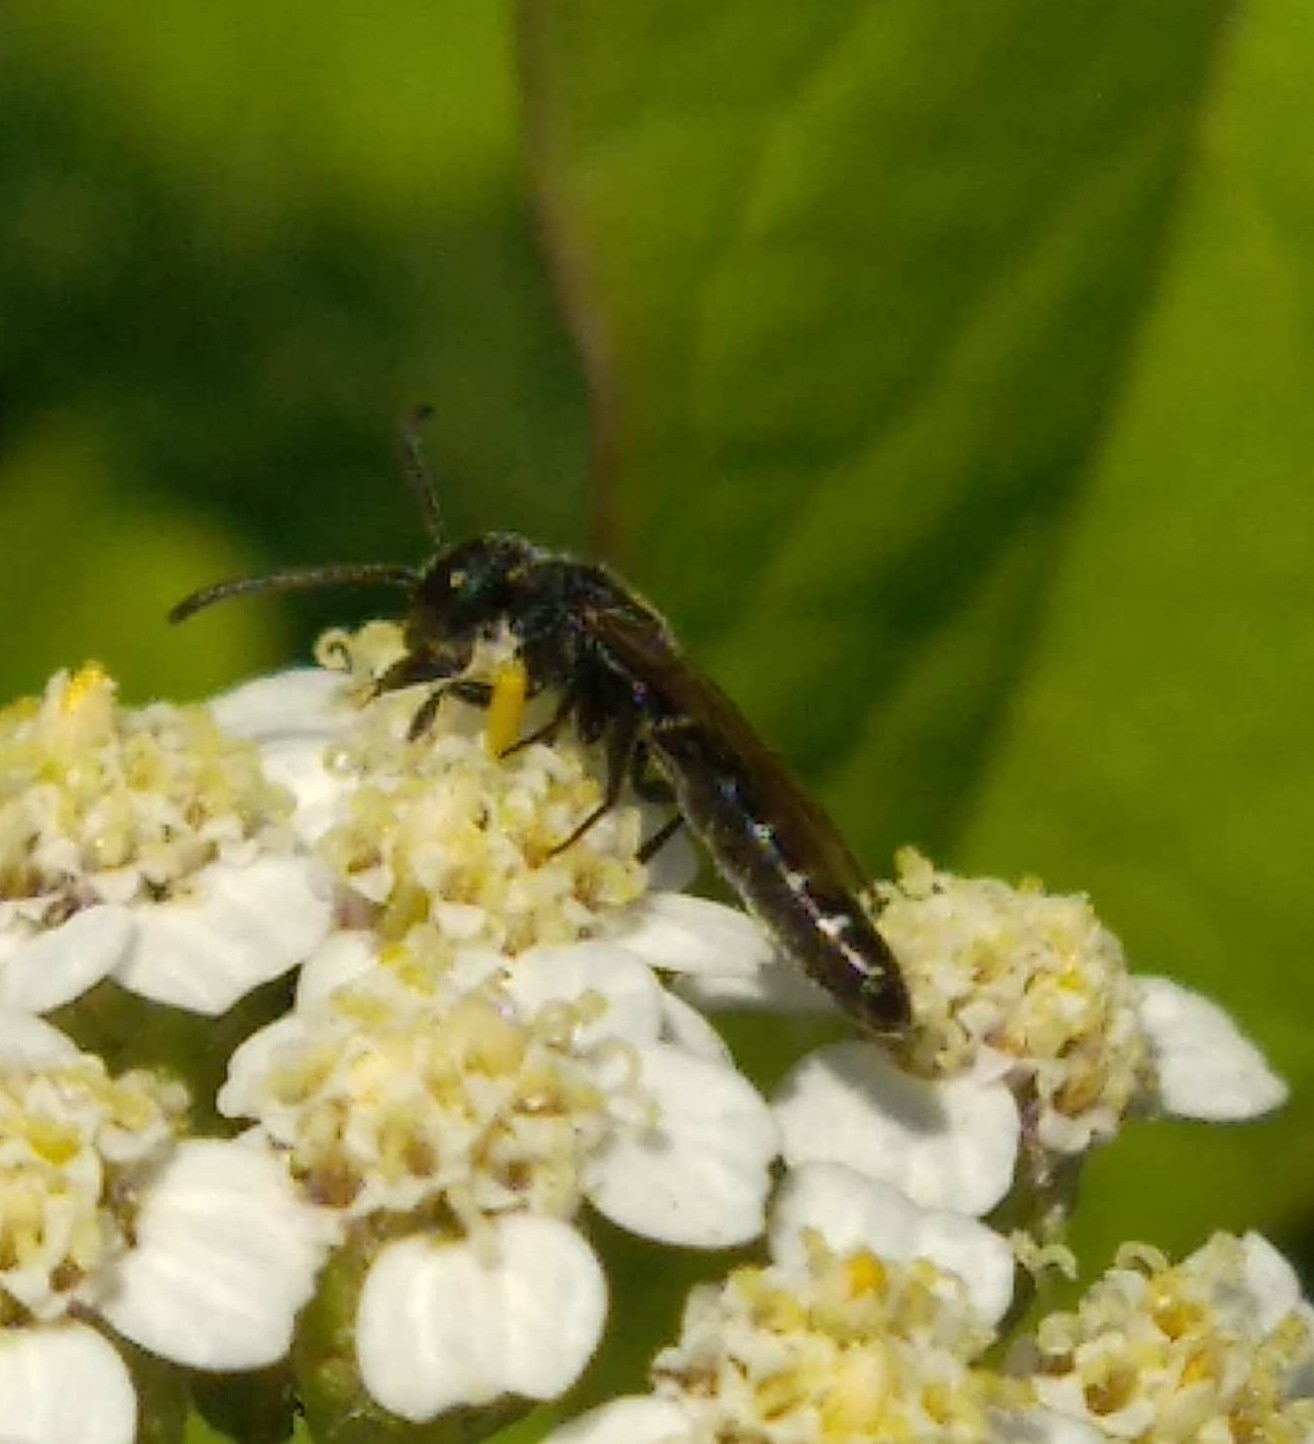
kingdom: Animalia
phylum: Arthropoda
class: Insecta
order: Hymenoptera
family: Sapygidae
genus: Sapygina
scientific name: Sapygina decemguttata
